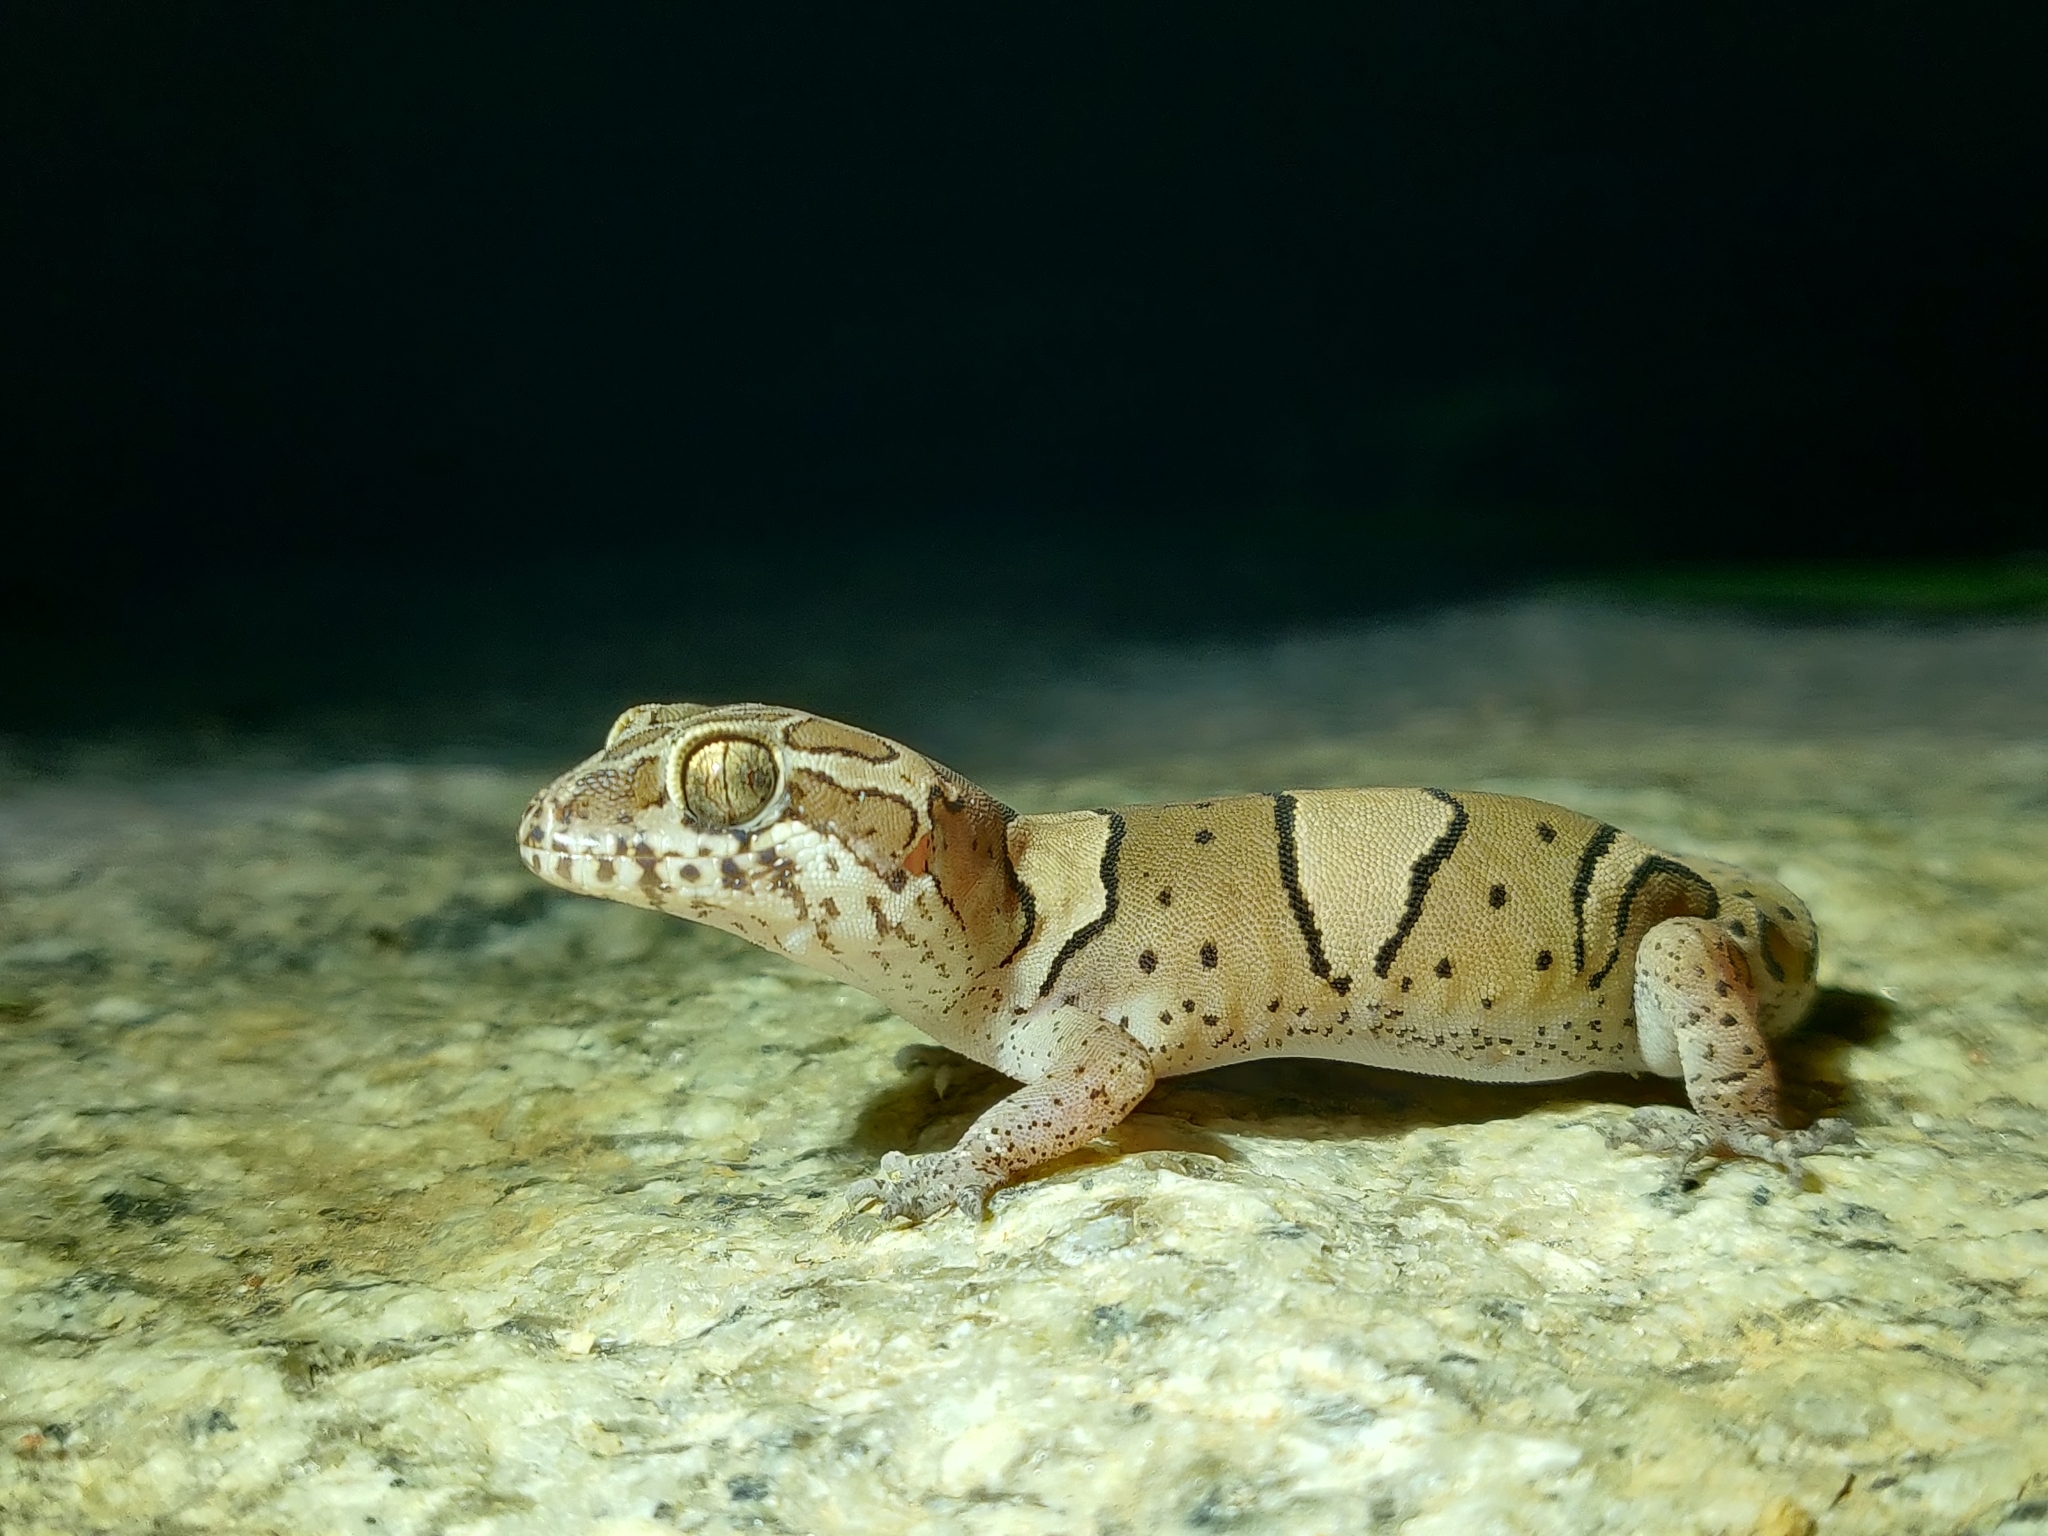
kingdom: Animalia
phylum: Chordata
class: Squamata
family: Gekkonidae
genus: Cyrtodactylus
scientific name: Cyrtodactylus srilekhae
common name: Bangalore geckoella
